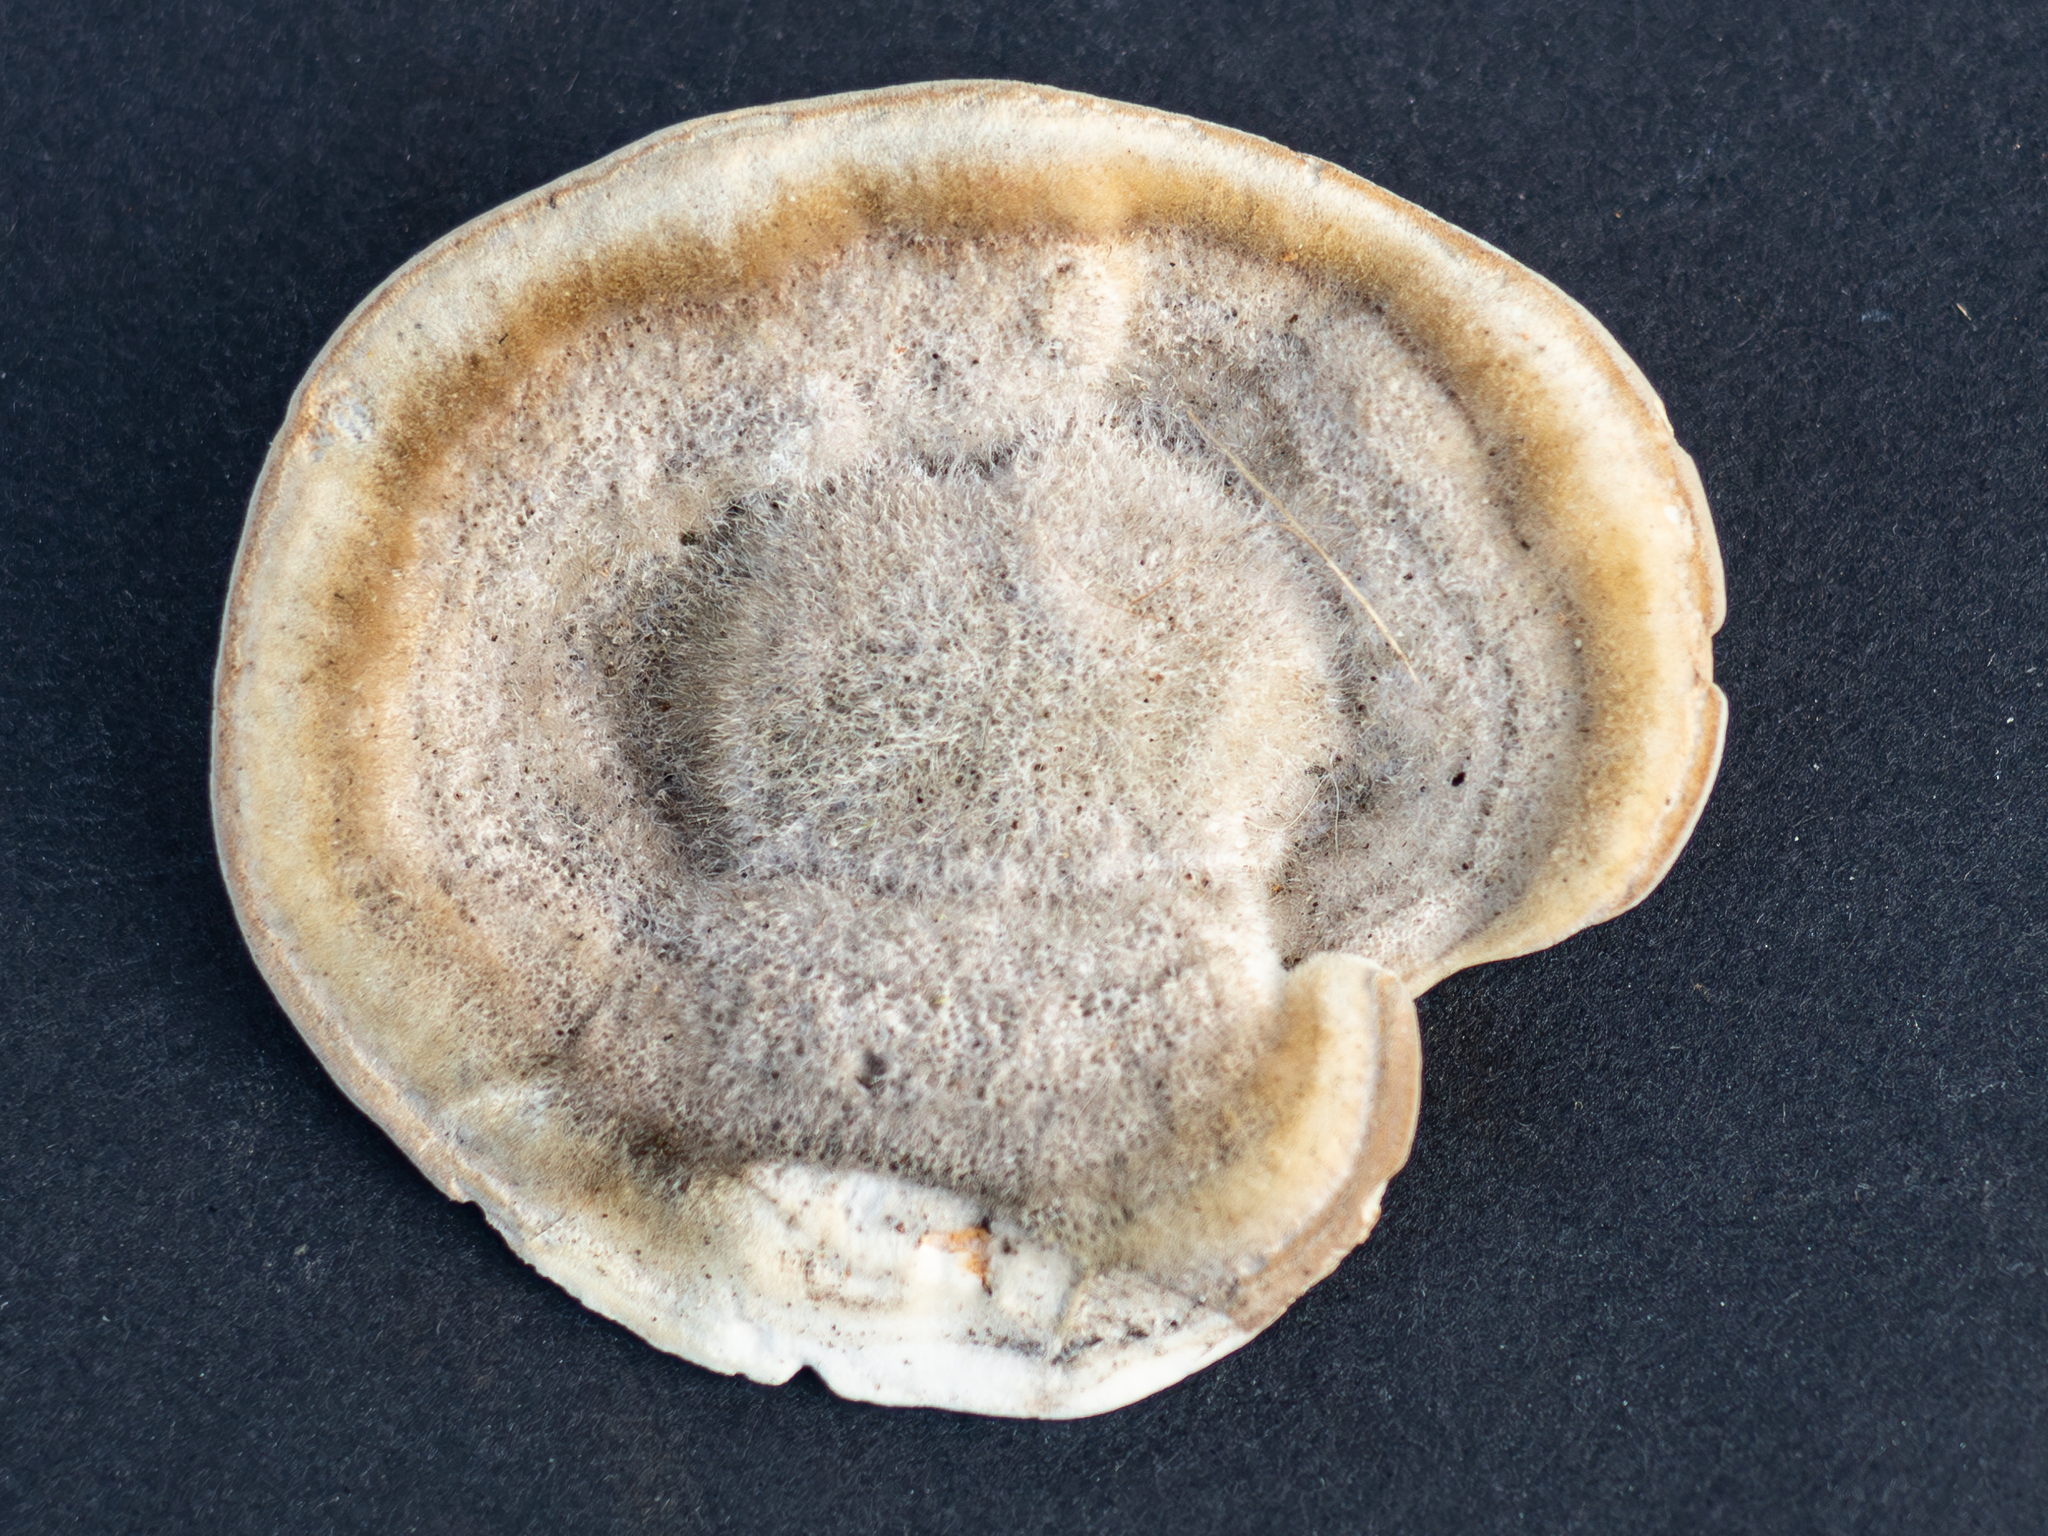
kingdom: Fungi
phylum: Basidiomycota
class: Agaricomycetes
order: Polyporales
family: Polyporaceae
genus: Trametes
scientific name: Trametes hirsuta
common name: Hairy bracket
